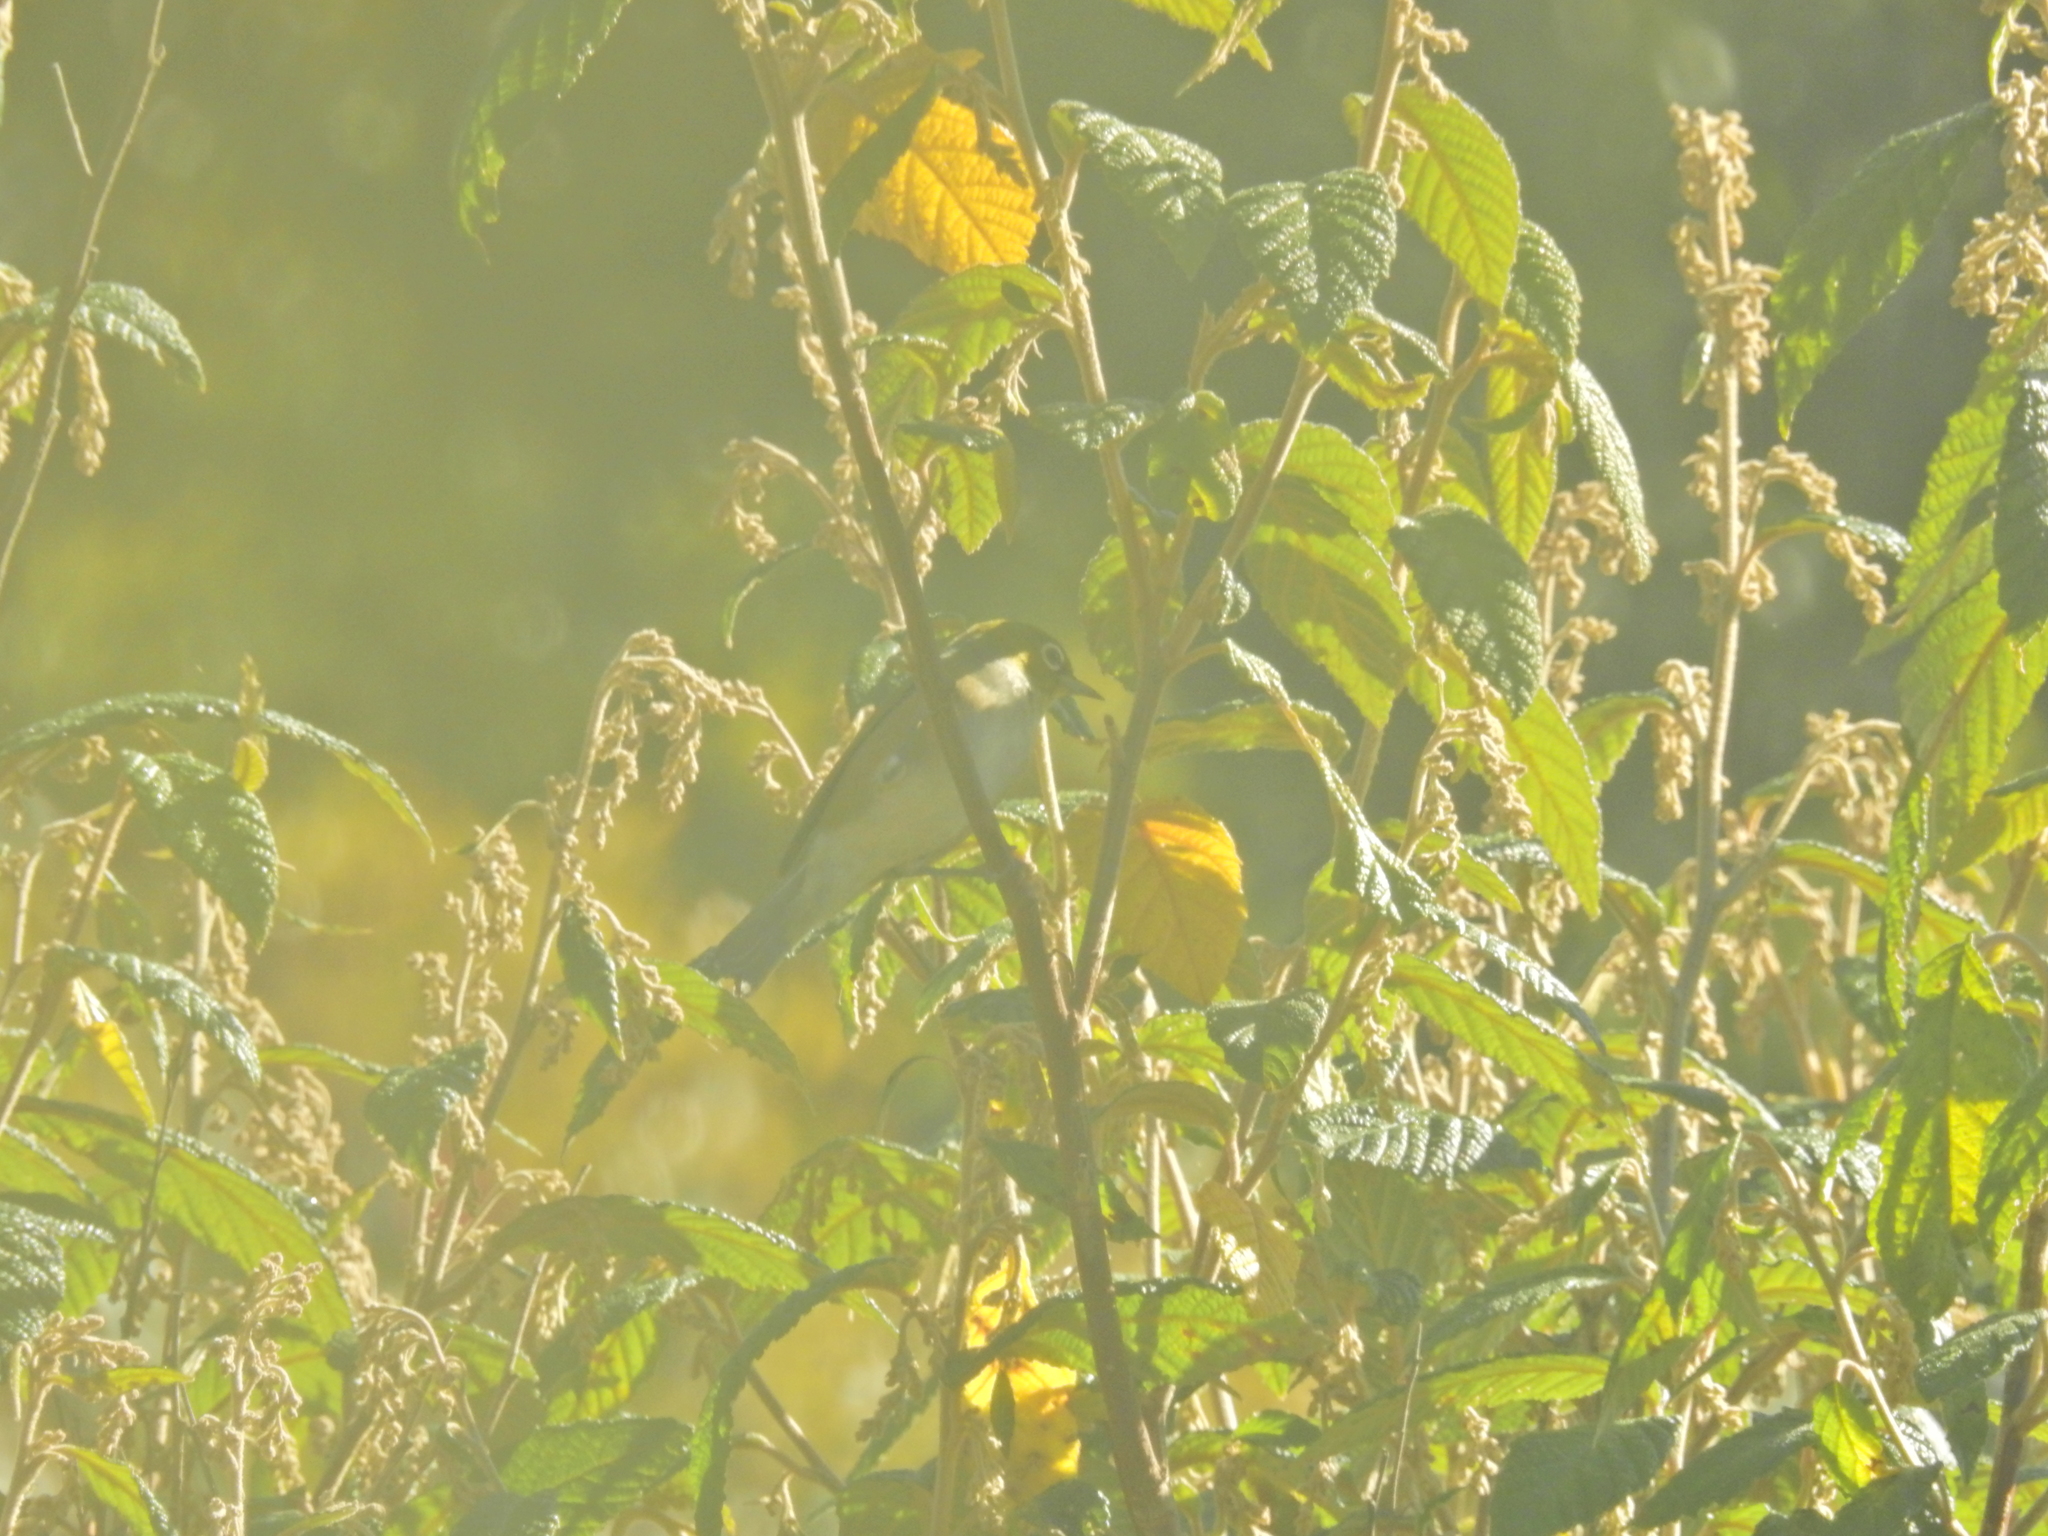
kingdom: Animalia
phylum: Chordata
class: Aves
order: Passeriformes
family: Zosteropidae
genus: Zosterops
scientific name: Zosterops lateralis
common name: Silvereye
